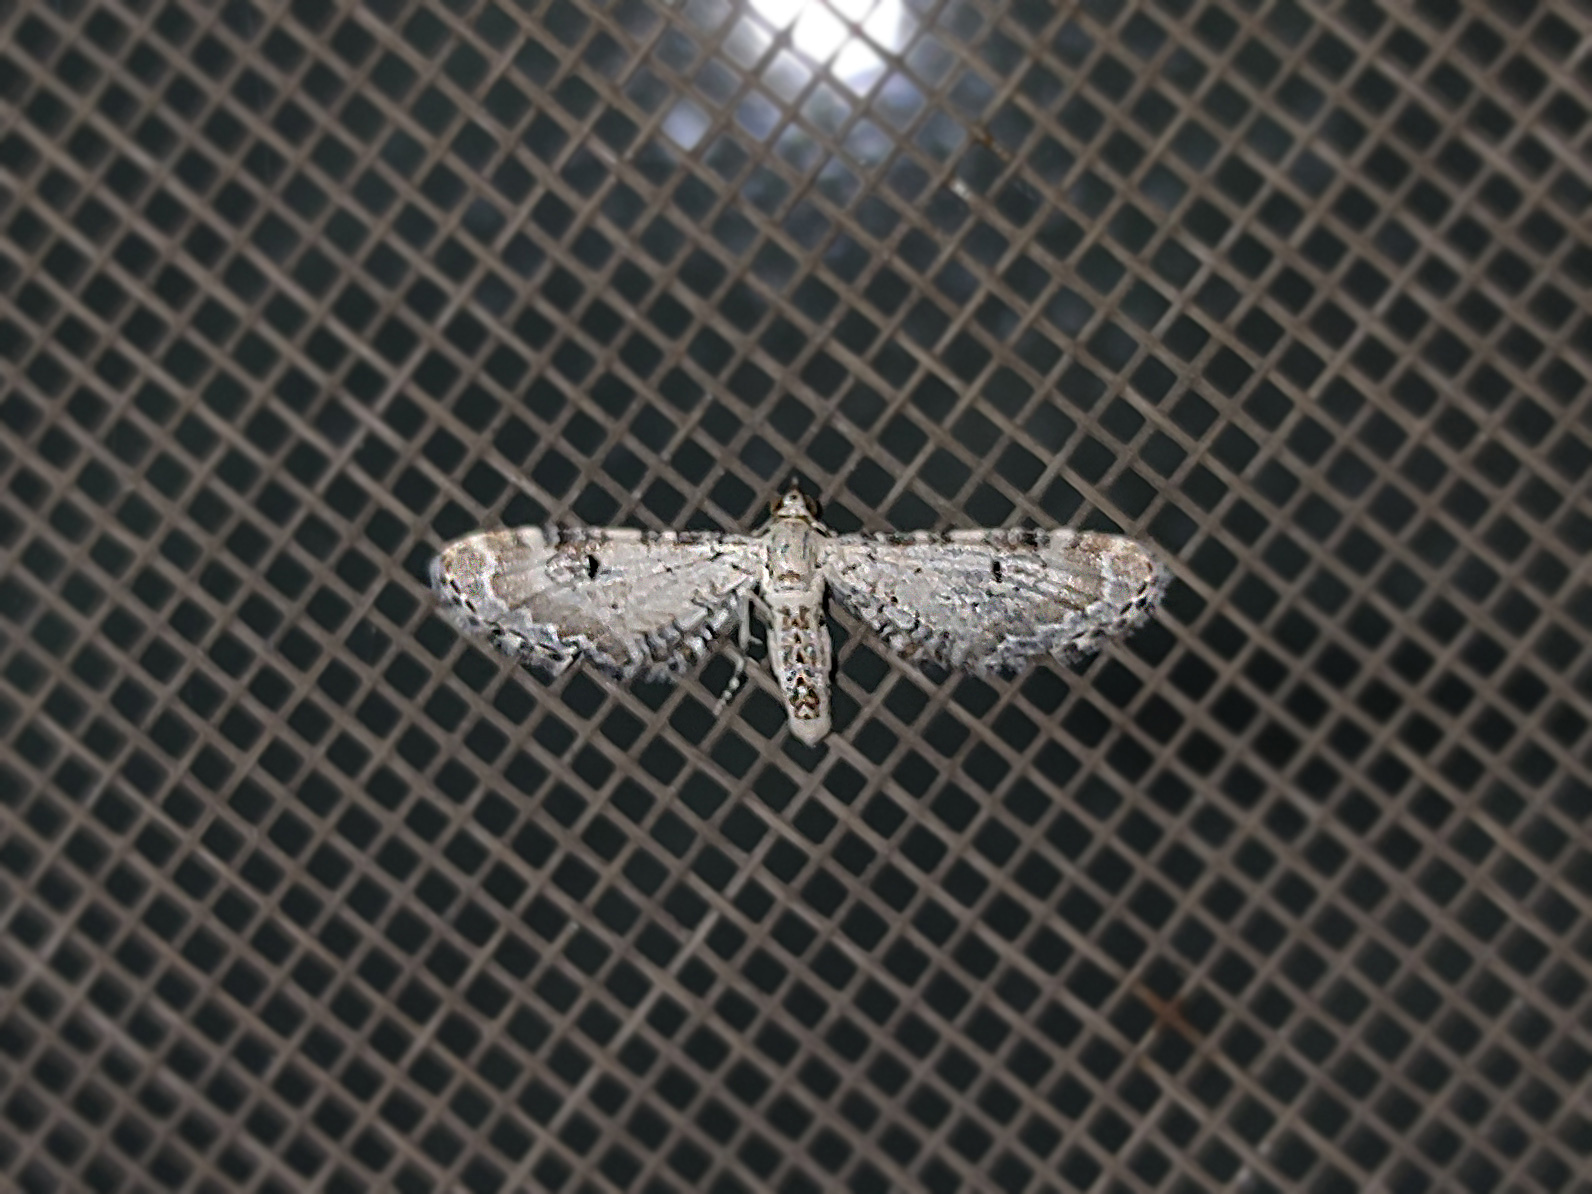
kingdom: Animalia
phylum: Arthropoda
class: Insecta
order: Lepidoptera
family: Geometridae
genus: Eupithecia
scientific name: Eupithecia centaureata
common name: Lime-speck pug
